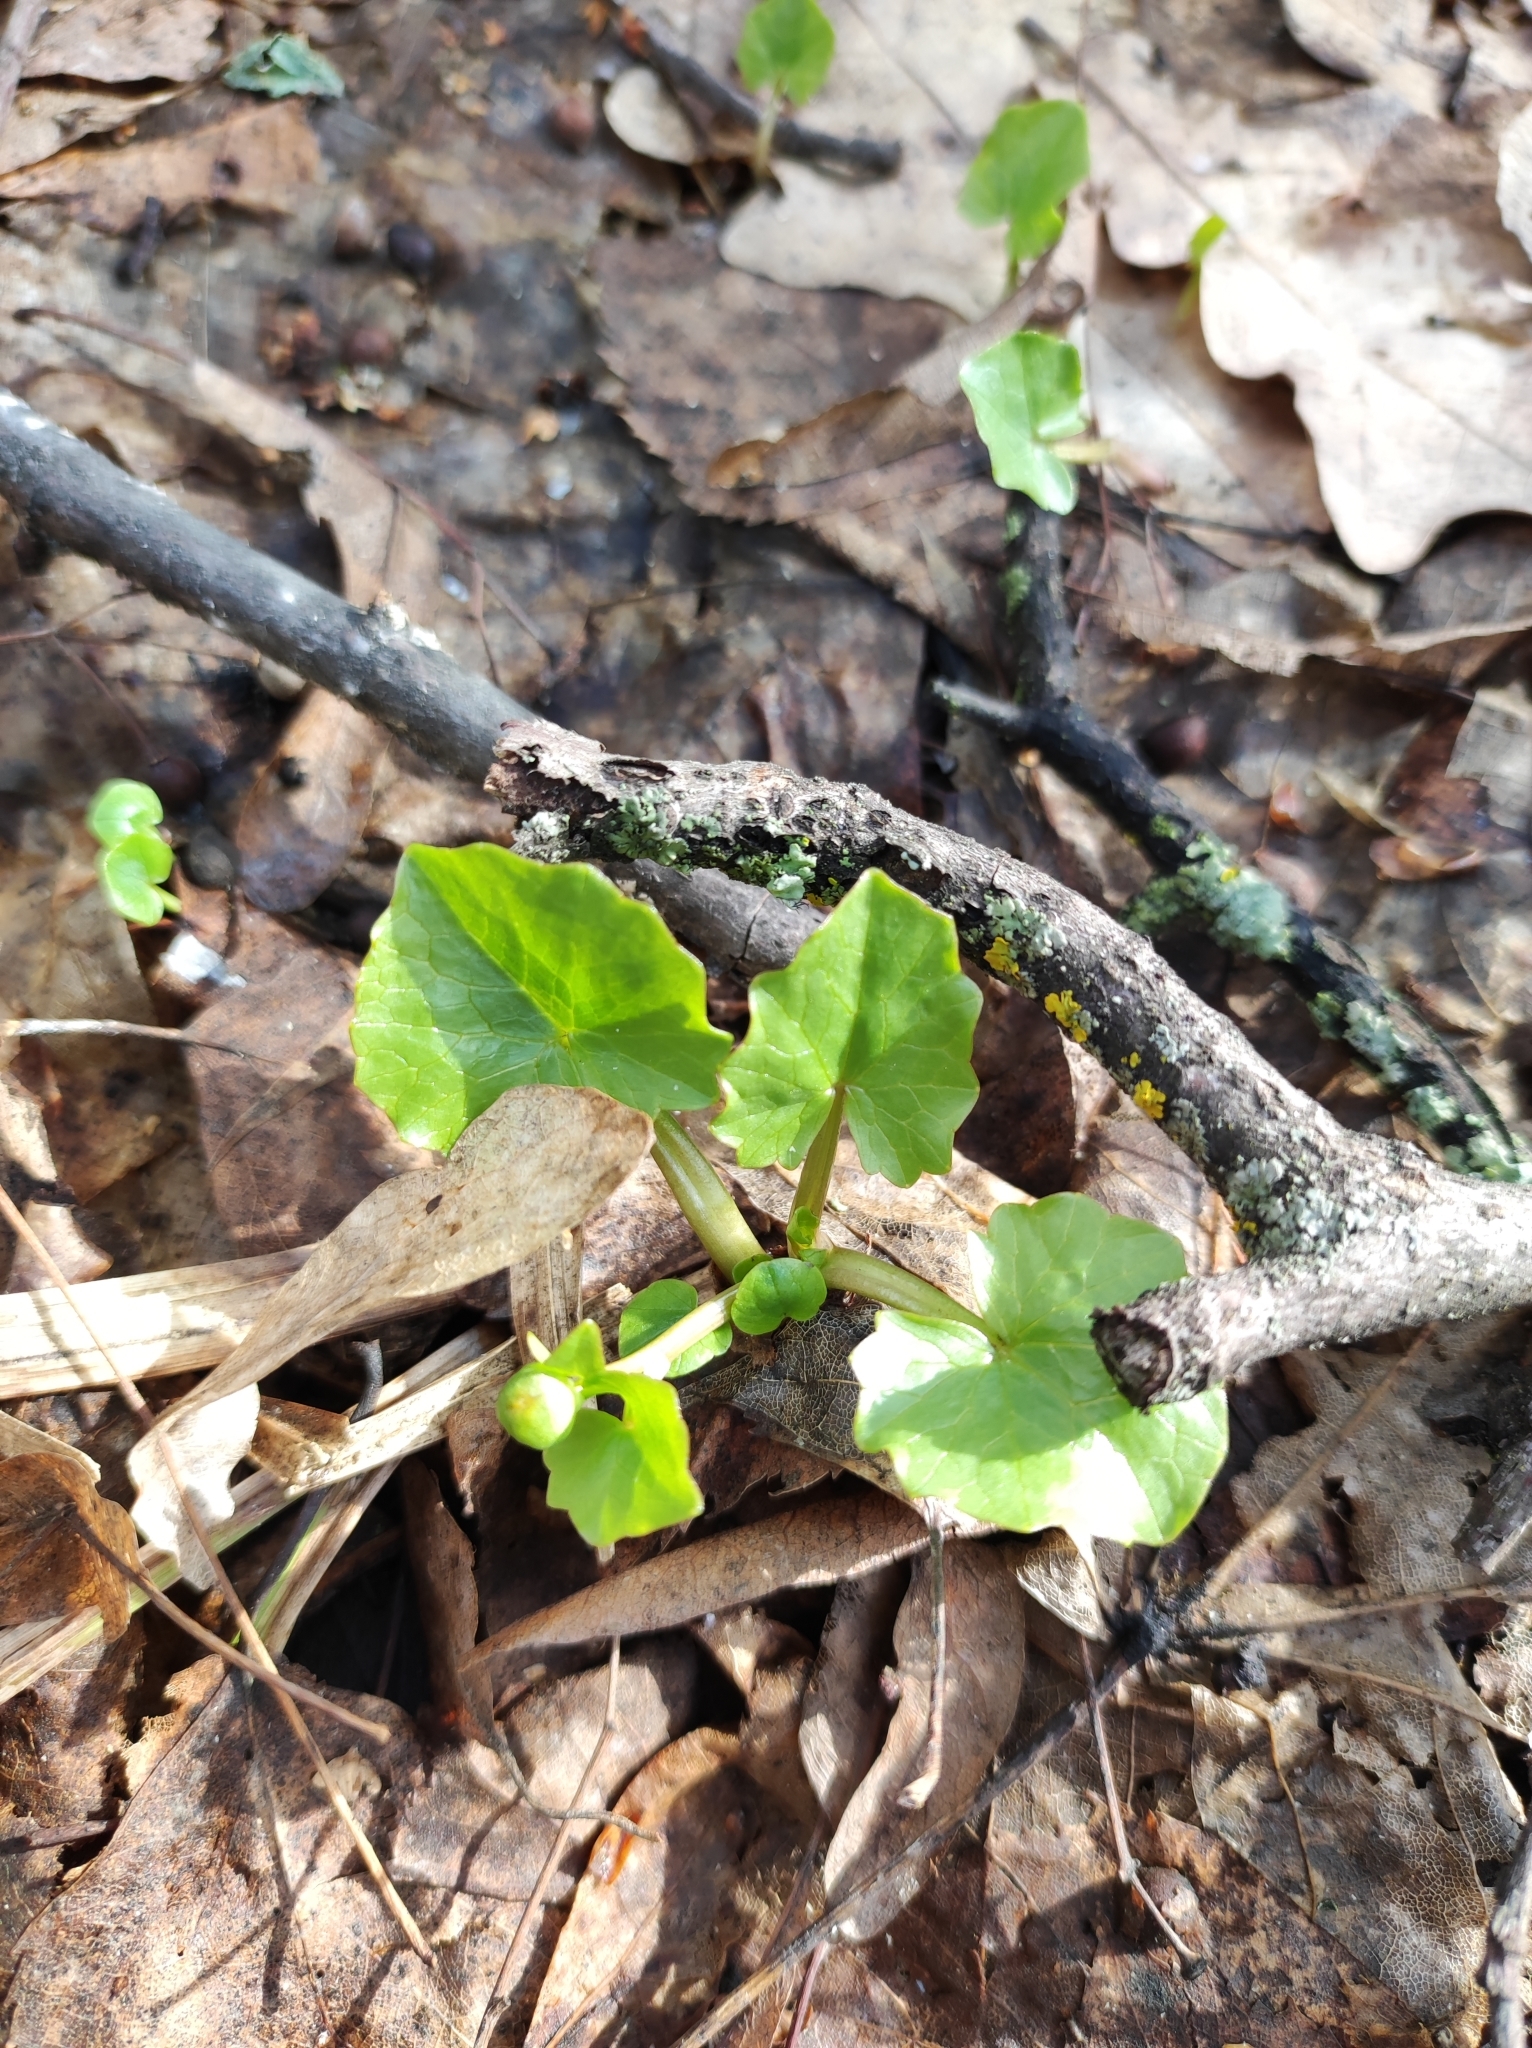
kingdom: Plantae
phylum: Tracheophyta
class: Magnoliopsida
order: Ranunculales
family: Ranunculaceae
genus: Ficaria
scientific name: Ficaria verna
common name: Lesser celandine
